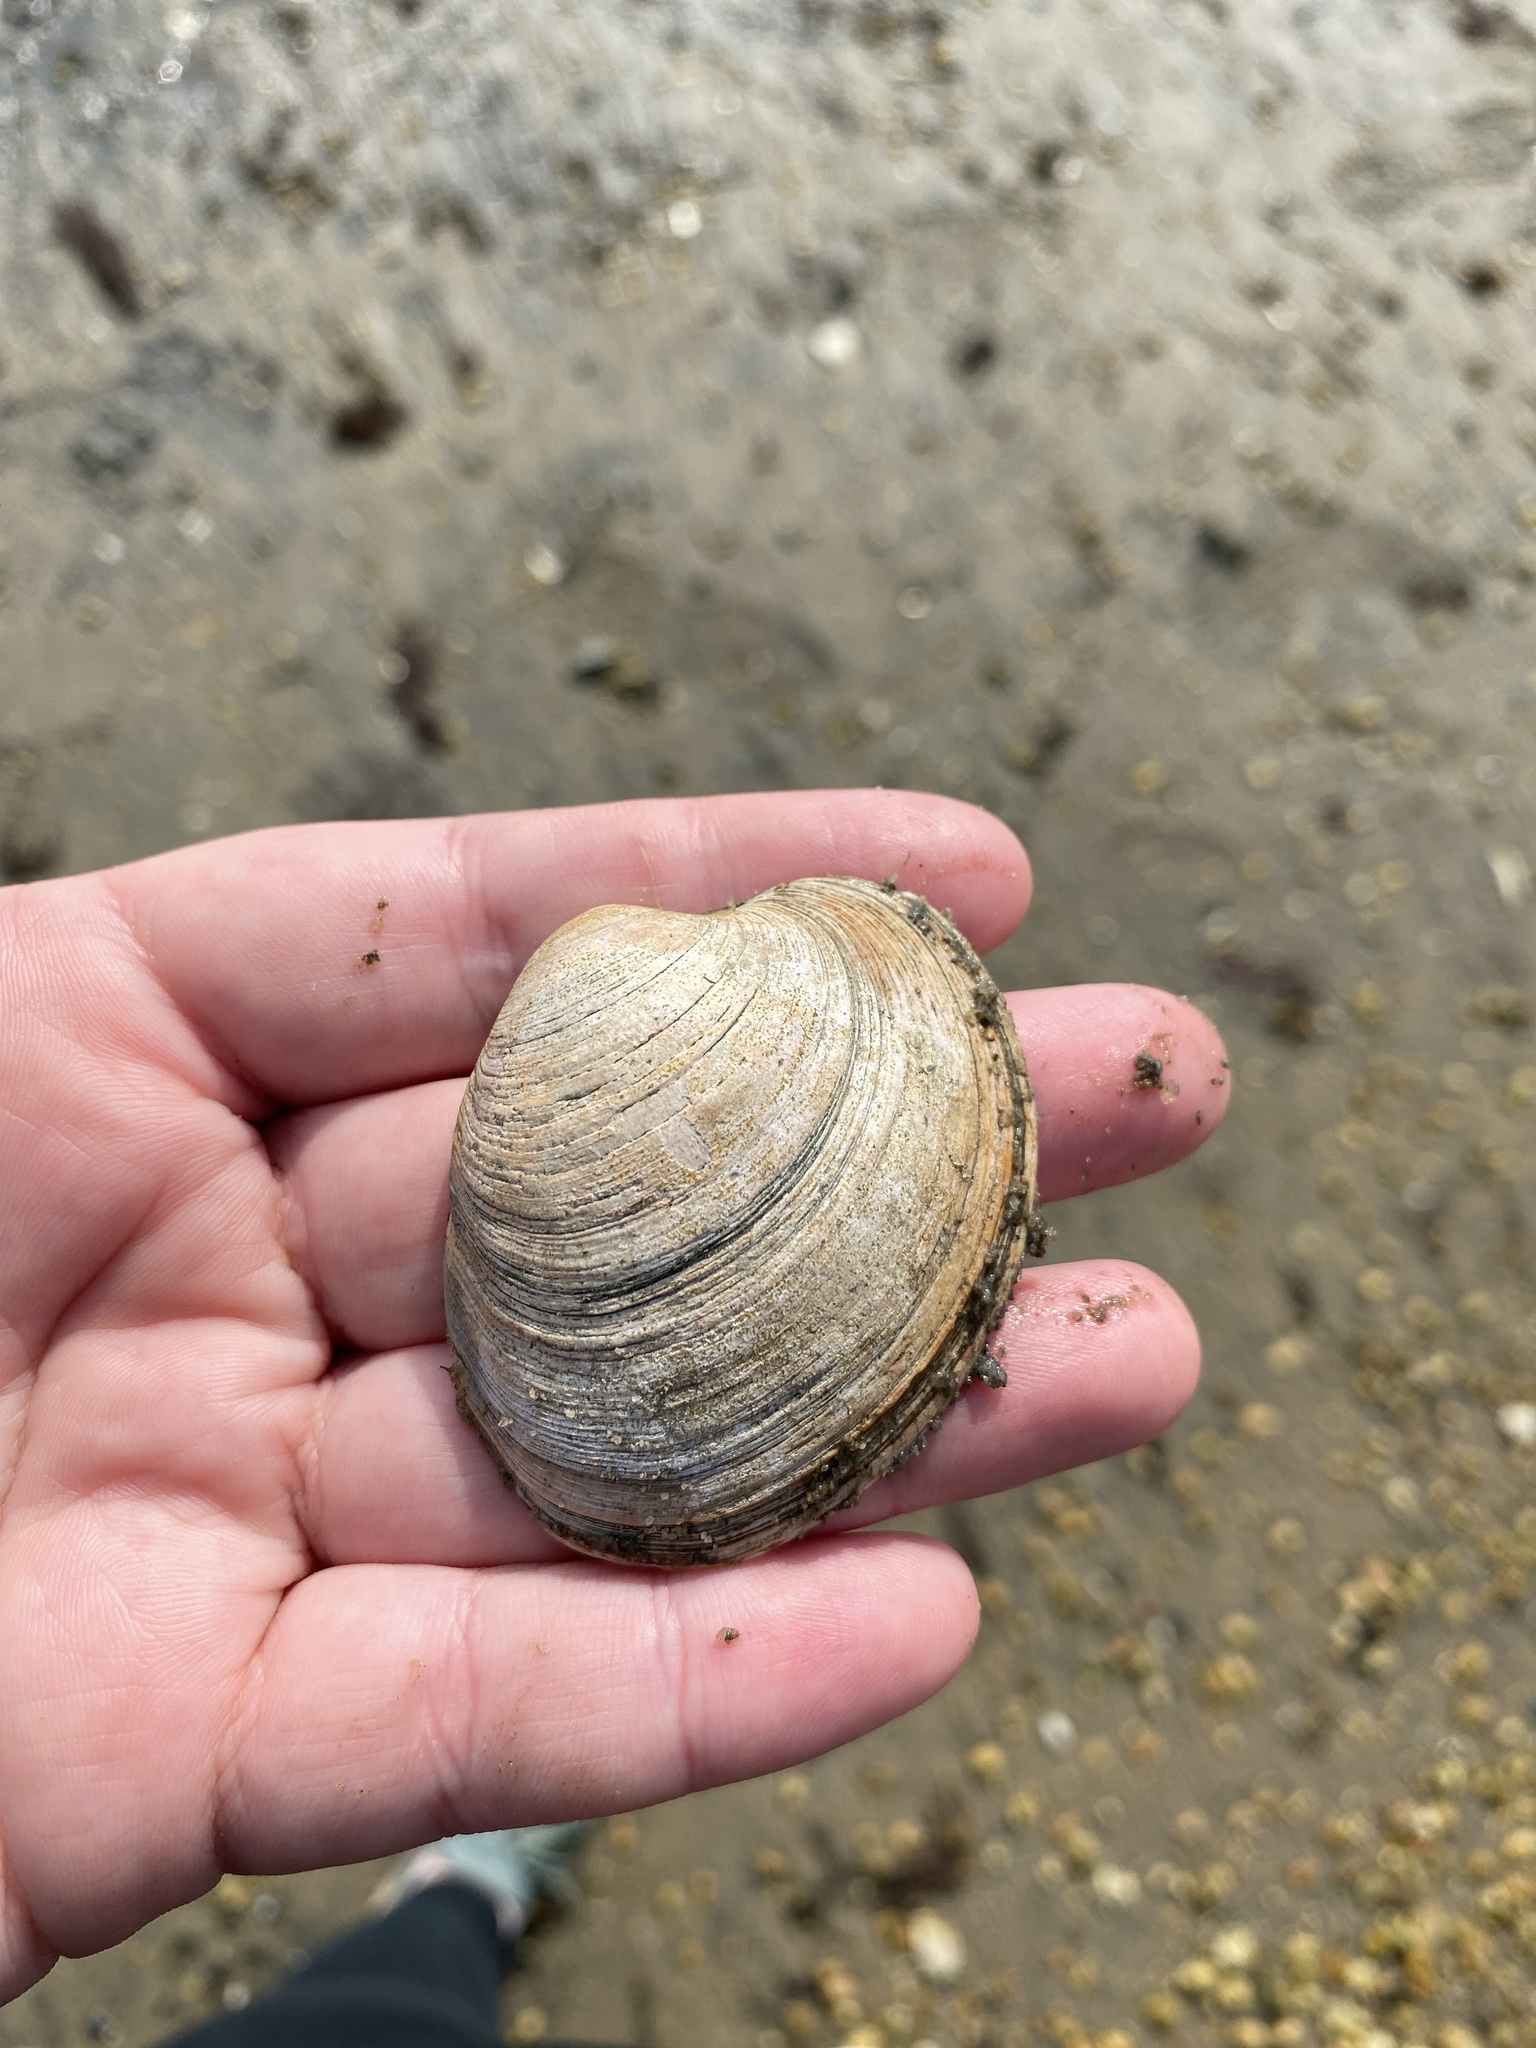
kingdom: Animalia
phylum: Mollusca
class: Bivalvia
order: Venerida
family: Veneridae
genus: Mercenaria
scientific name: Mercenaria mercenaria
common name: American hard-shelled clam
